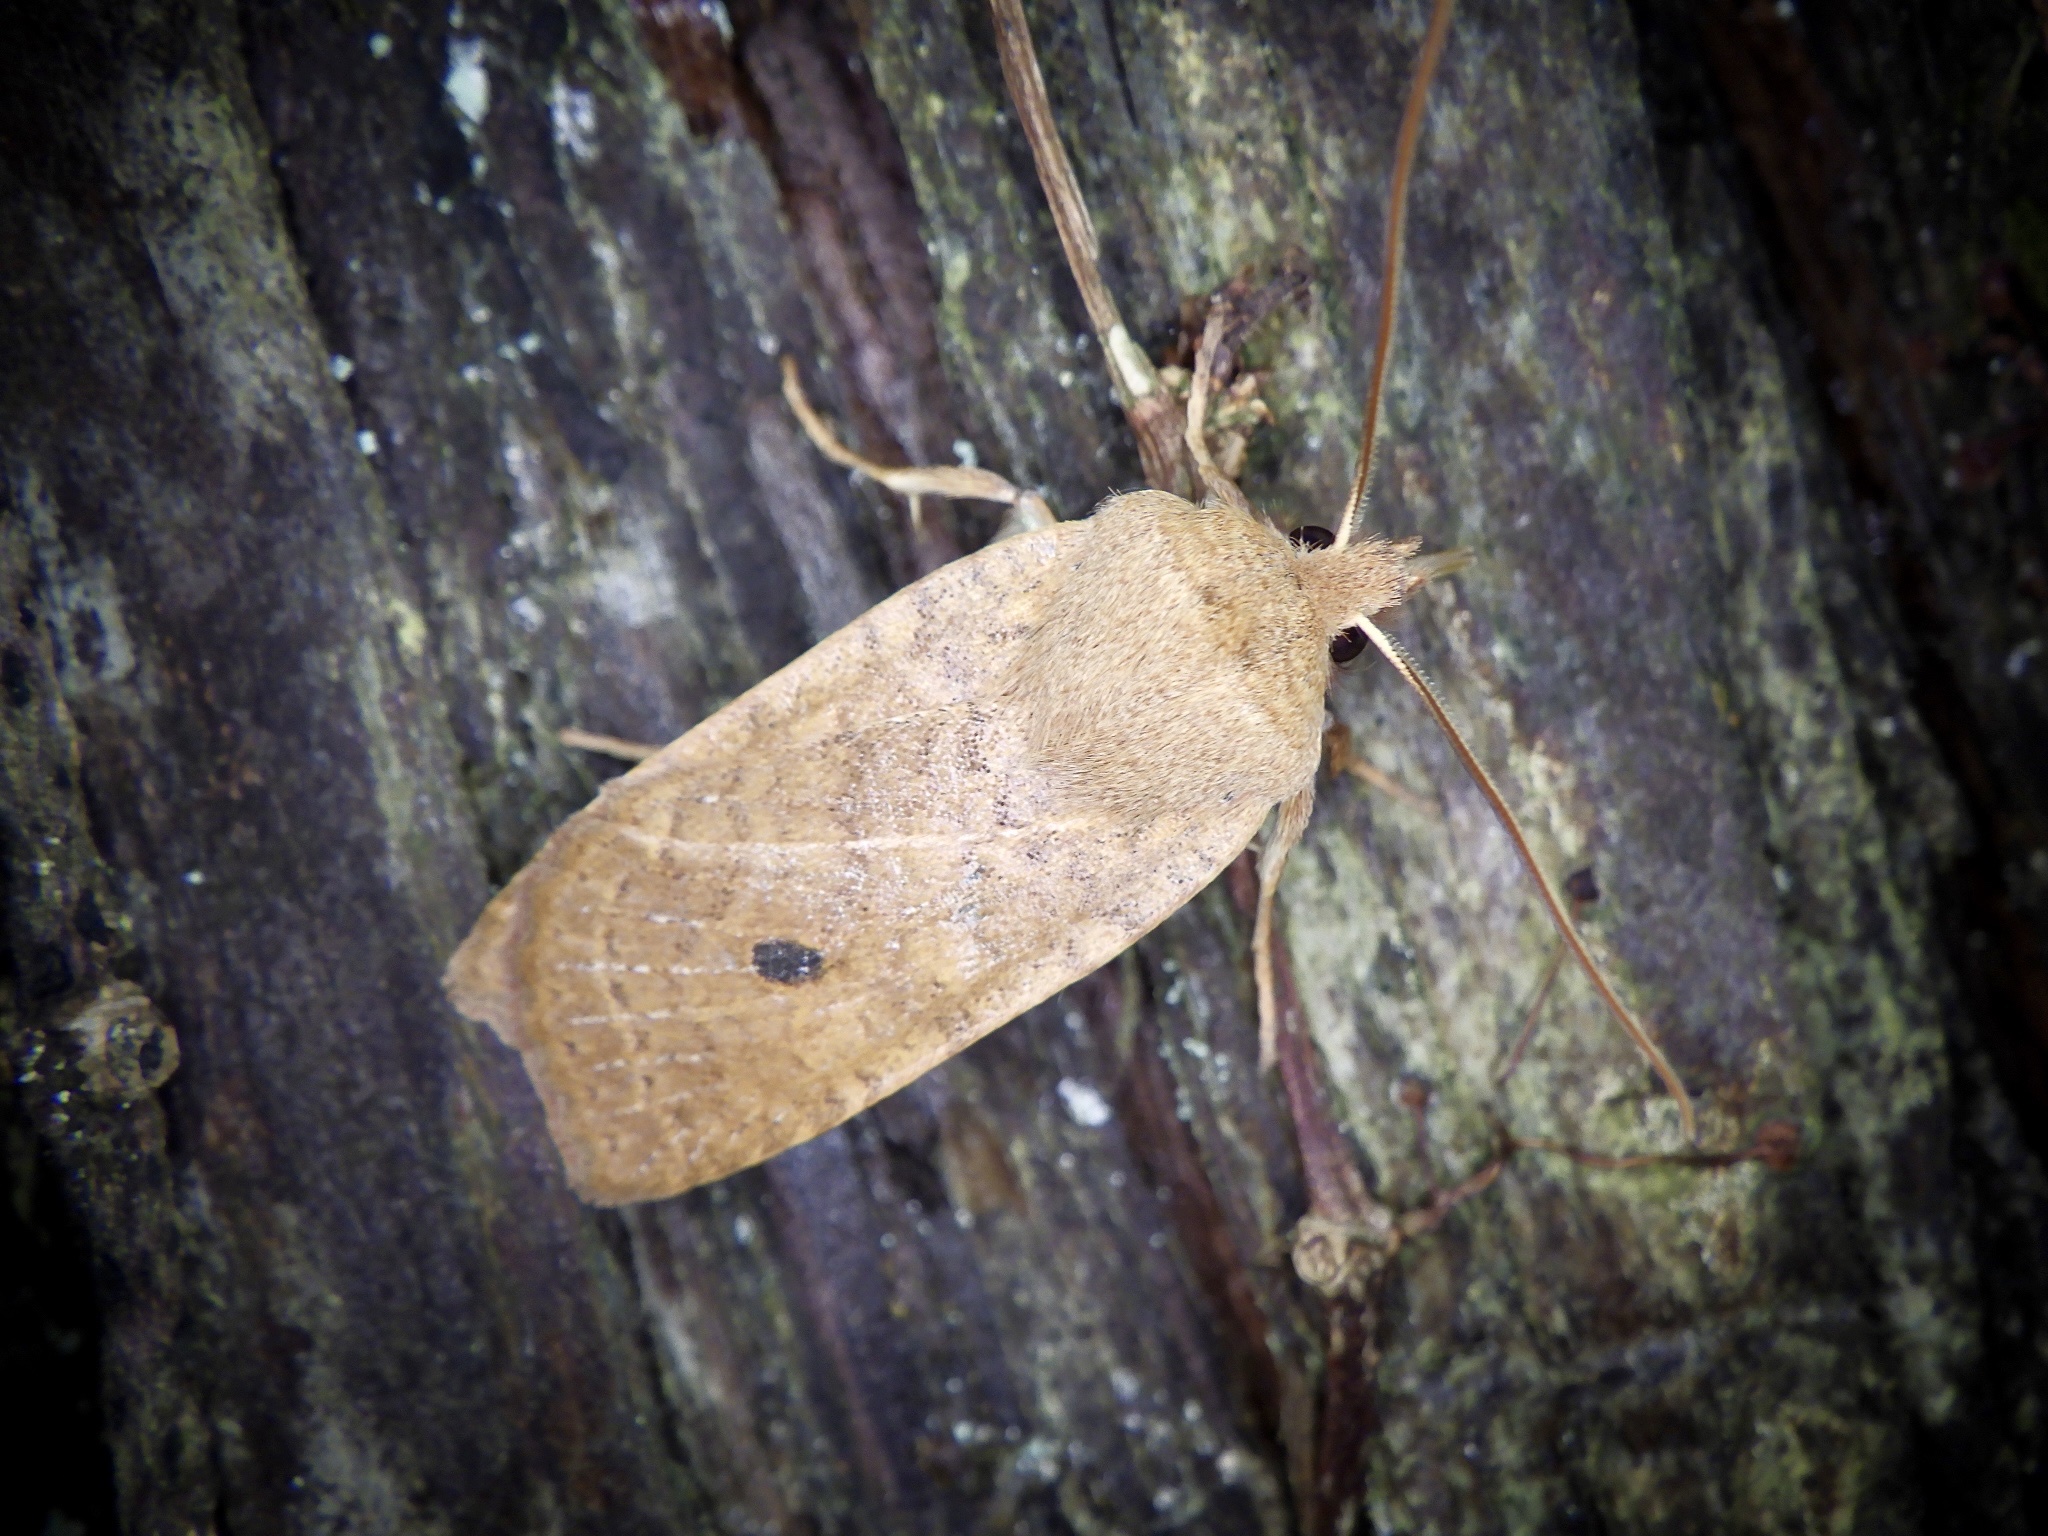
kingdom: Animalia
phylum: Arthropoda
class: Insecta
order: Lepidoptera
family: Noctuidae
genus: Conistra
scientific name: Conistra albipuncta
